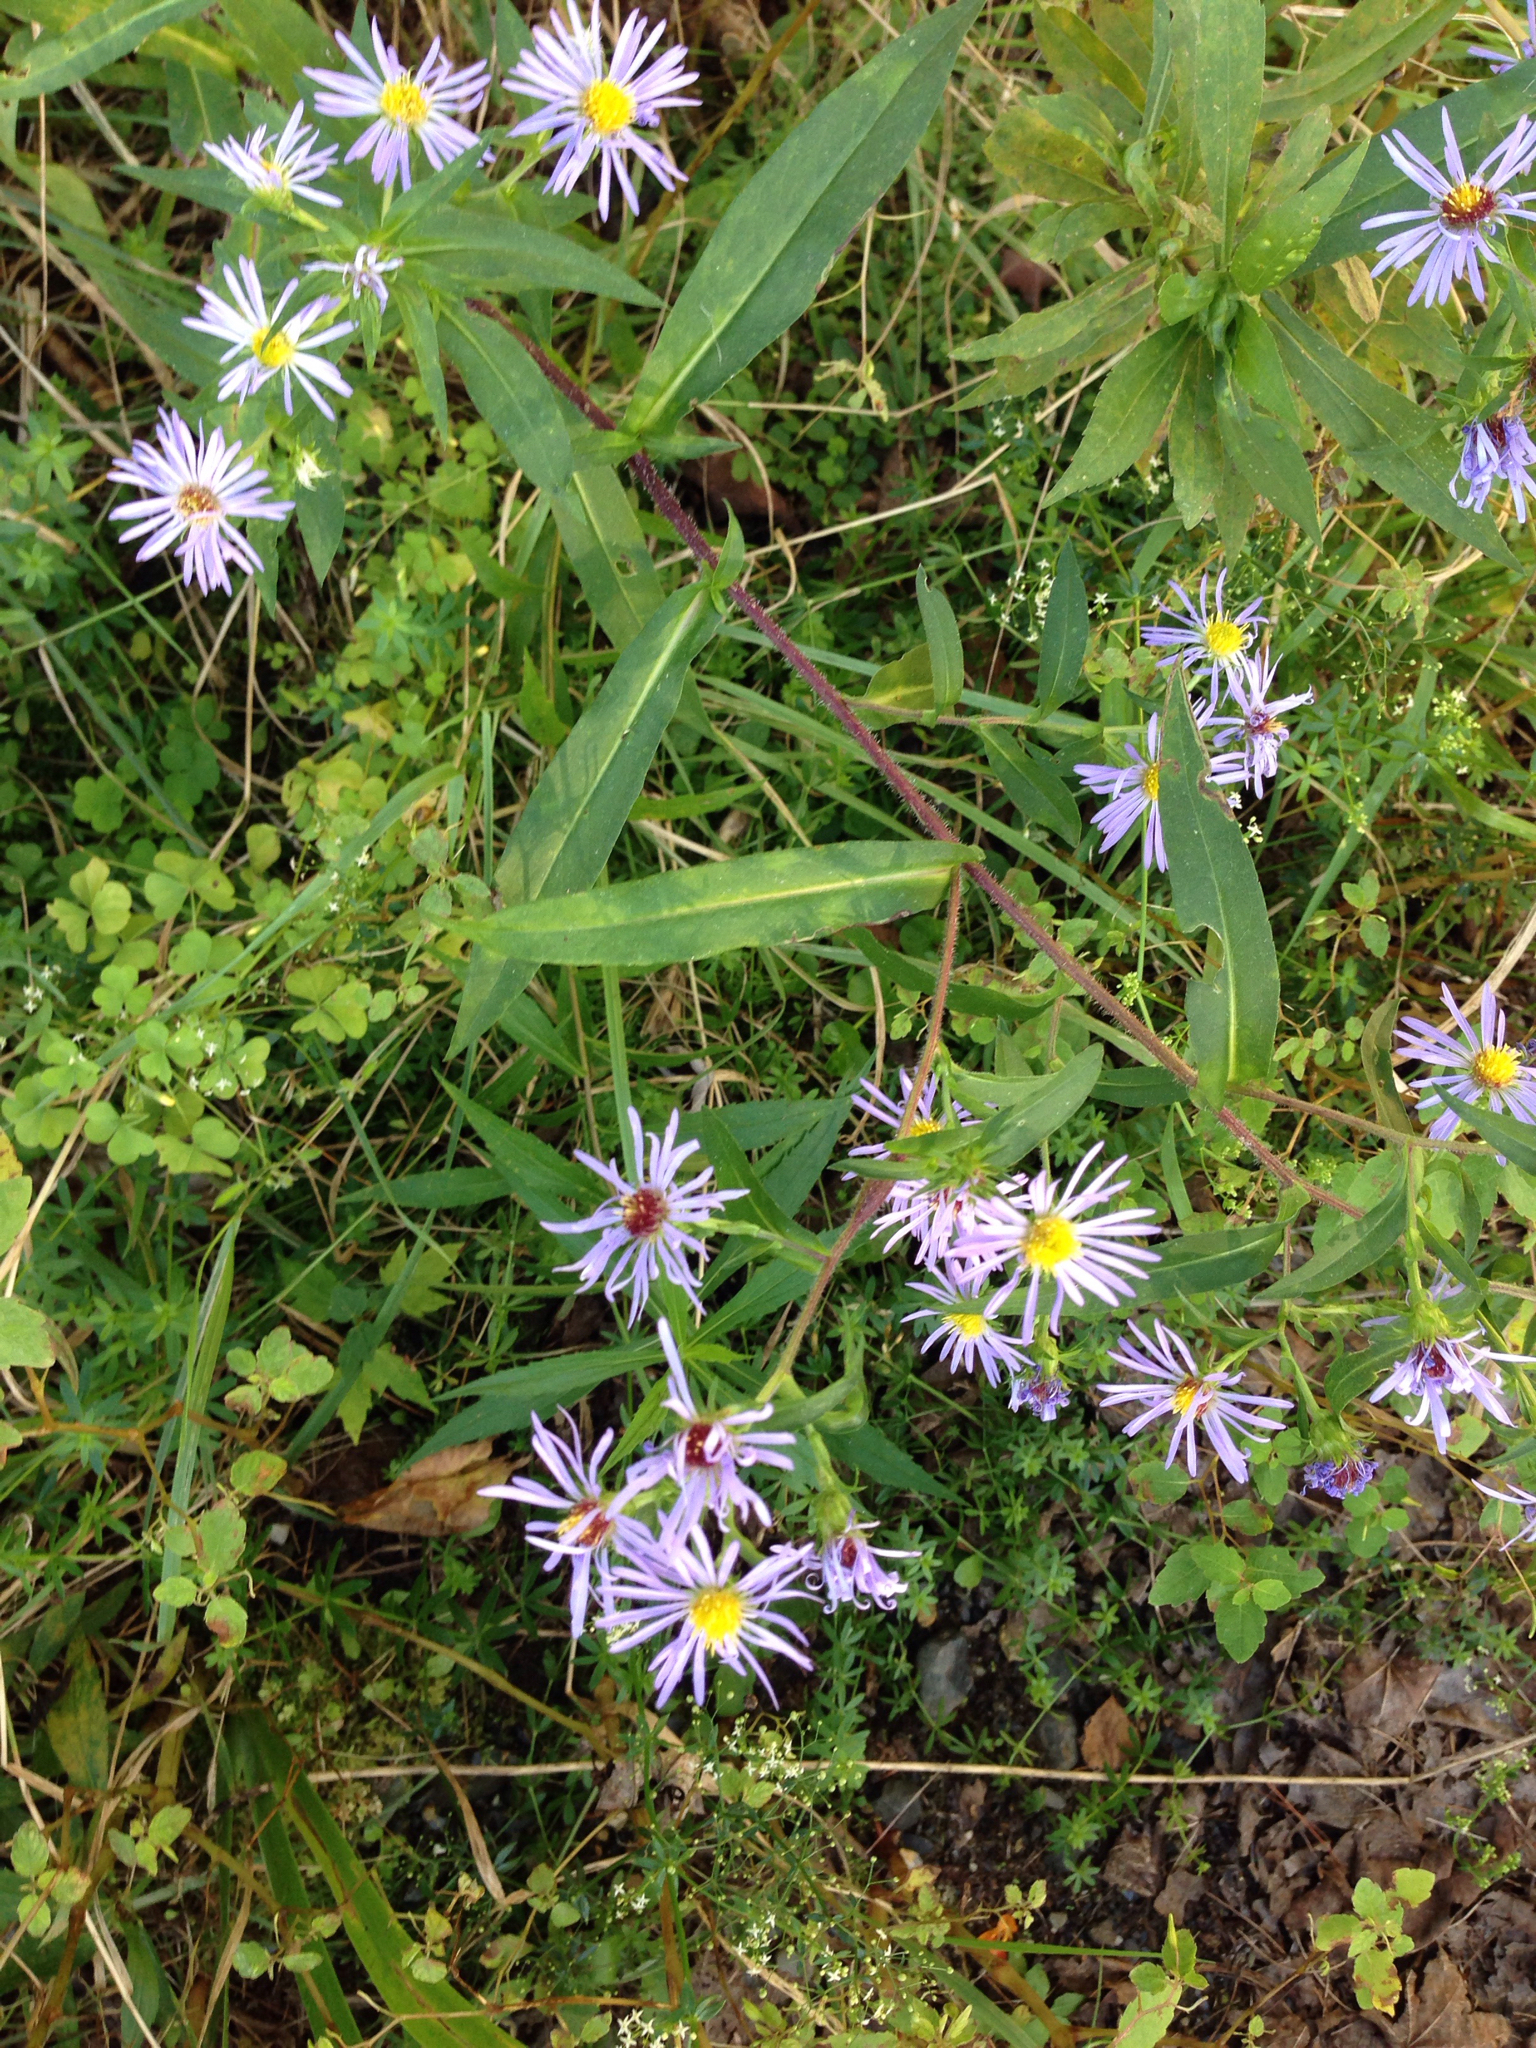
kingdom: Plantae
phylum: Tracheophyta
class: Magnoliopsida
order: Asterales
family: Asteraceae
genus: Symphyotrichum
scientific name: Symphyotrichum puniceum
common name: Bog aster
